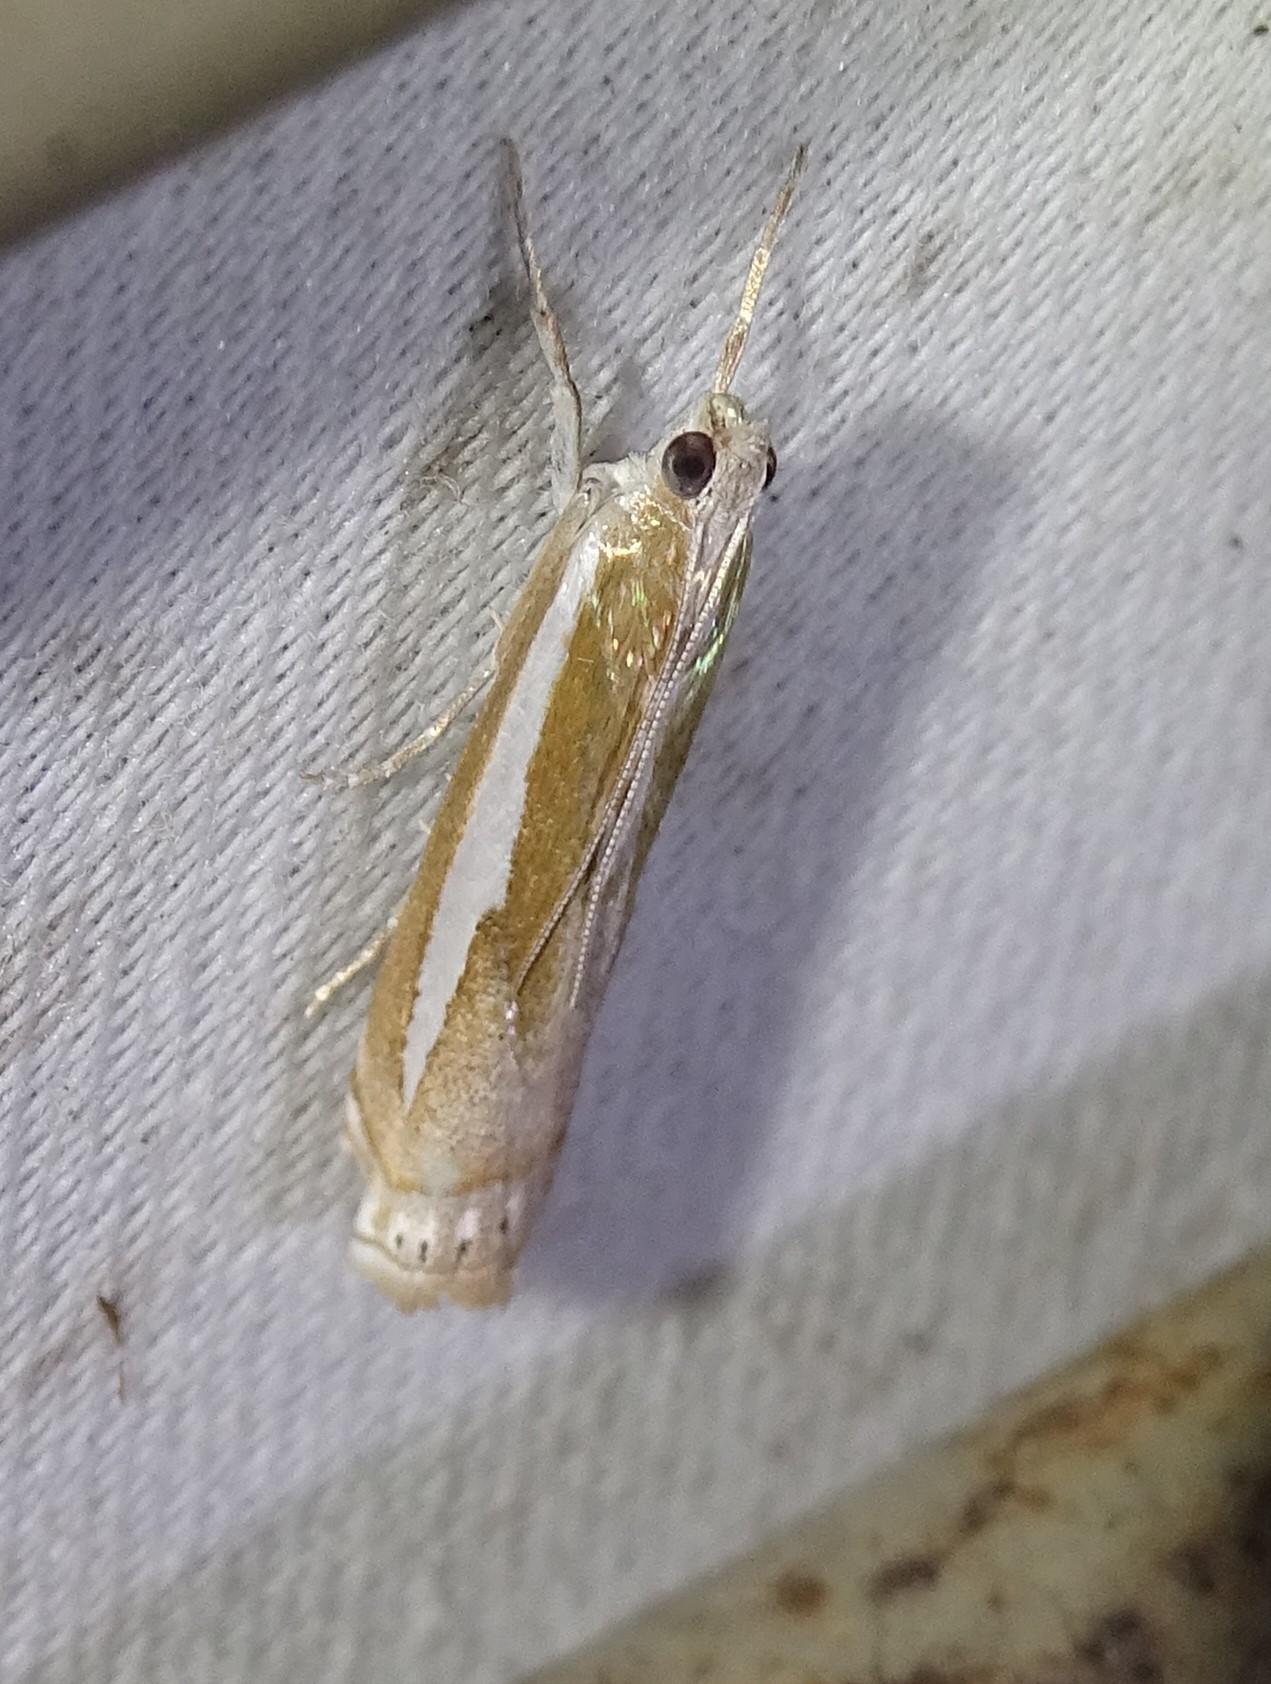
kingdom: Animalia
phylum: Arthropoda
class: Insecta
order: Lepidoptera
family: Crambidae
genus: Crambus
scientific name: Crambus praefectellus
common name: Common grass-veneer
